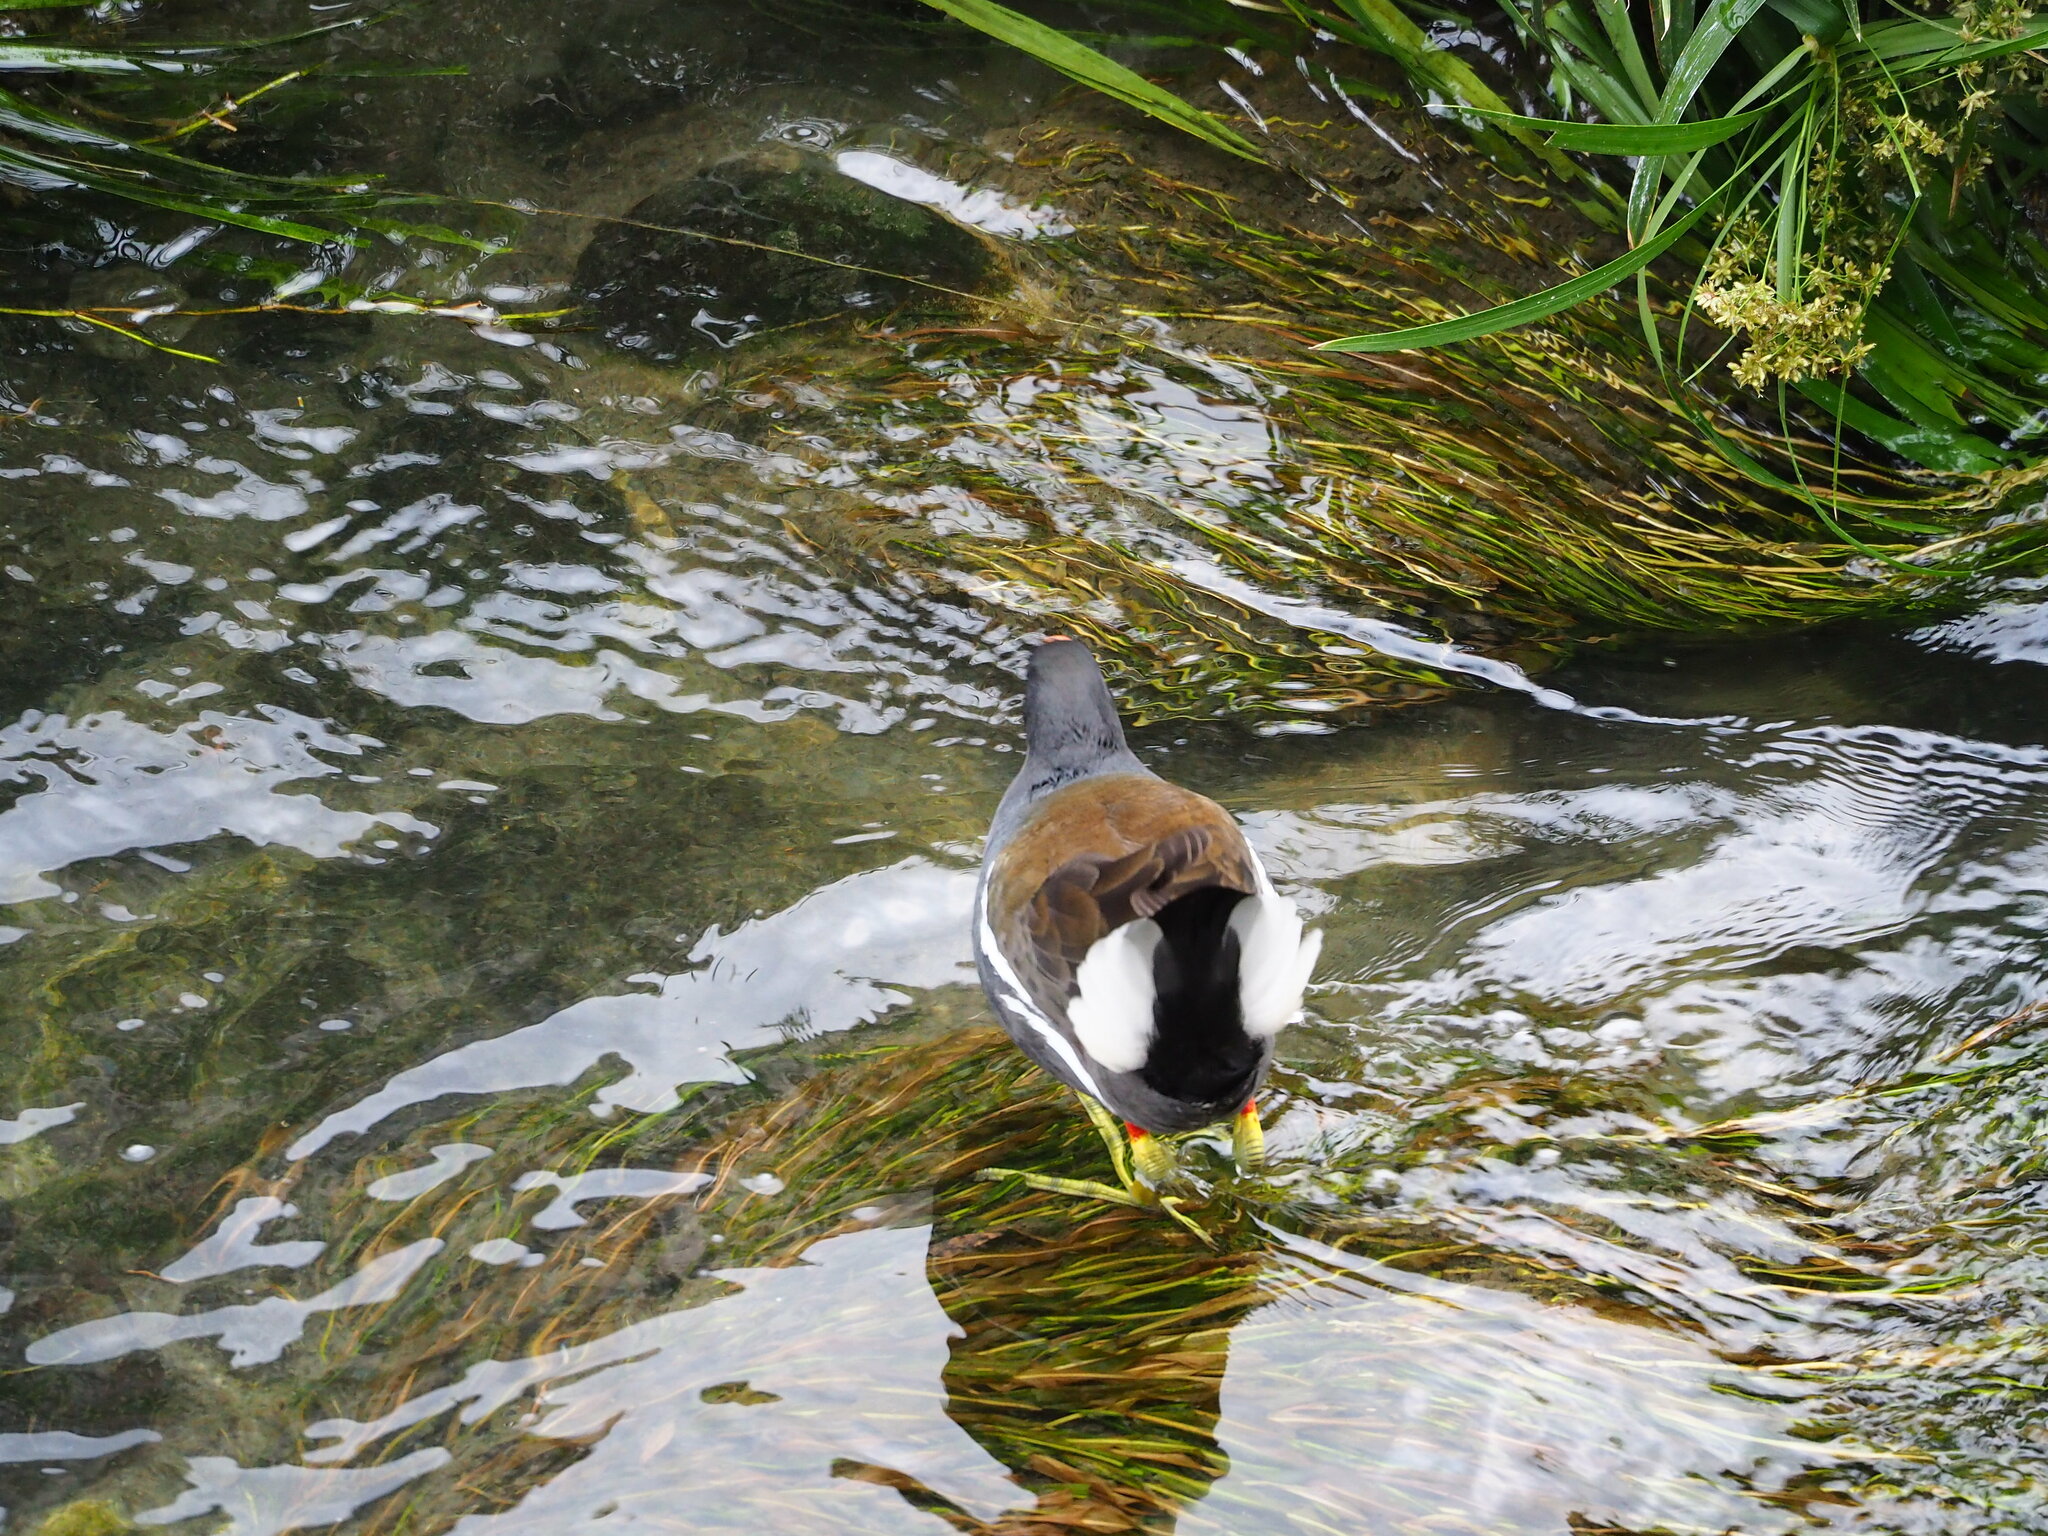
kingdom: Animalia
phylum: Chordata
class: Aves
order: Gruiformes
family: Rallidae
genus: Gallinula
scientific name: Gallinula chloropus
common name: Common moorhen
